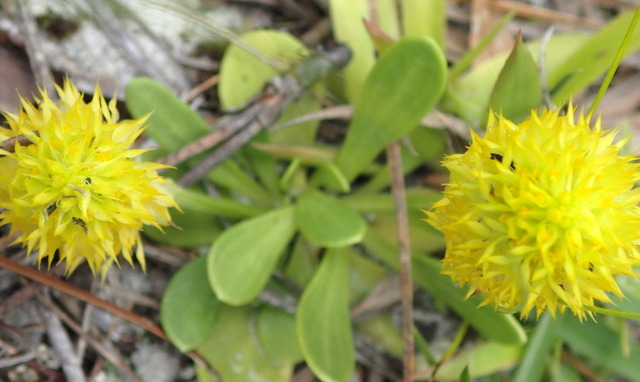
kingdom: Plantae
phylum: Tracheophyta
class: Magnoliopsida
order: Fabales
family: Polygalaceae
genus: Polygala
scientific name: Polygala nana
